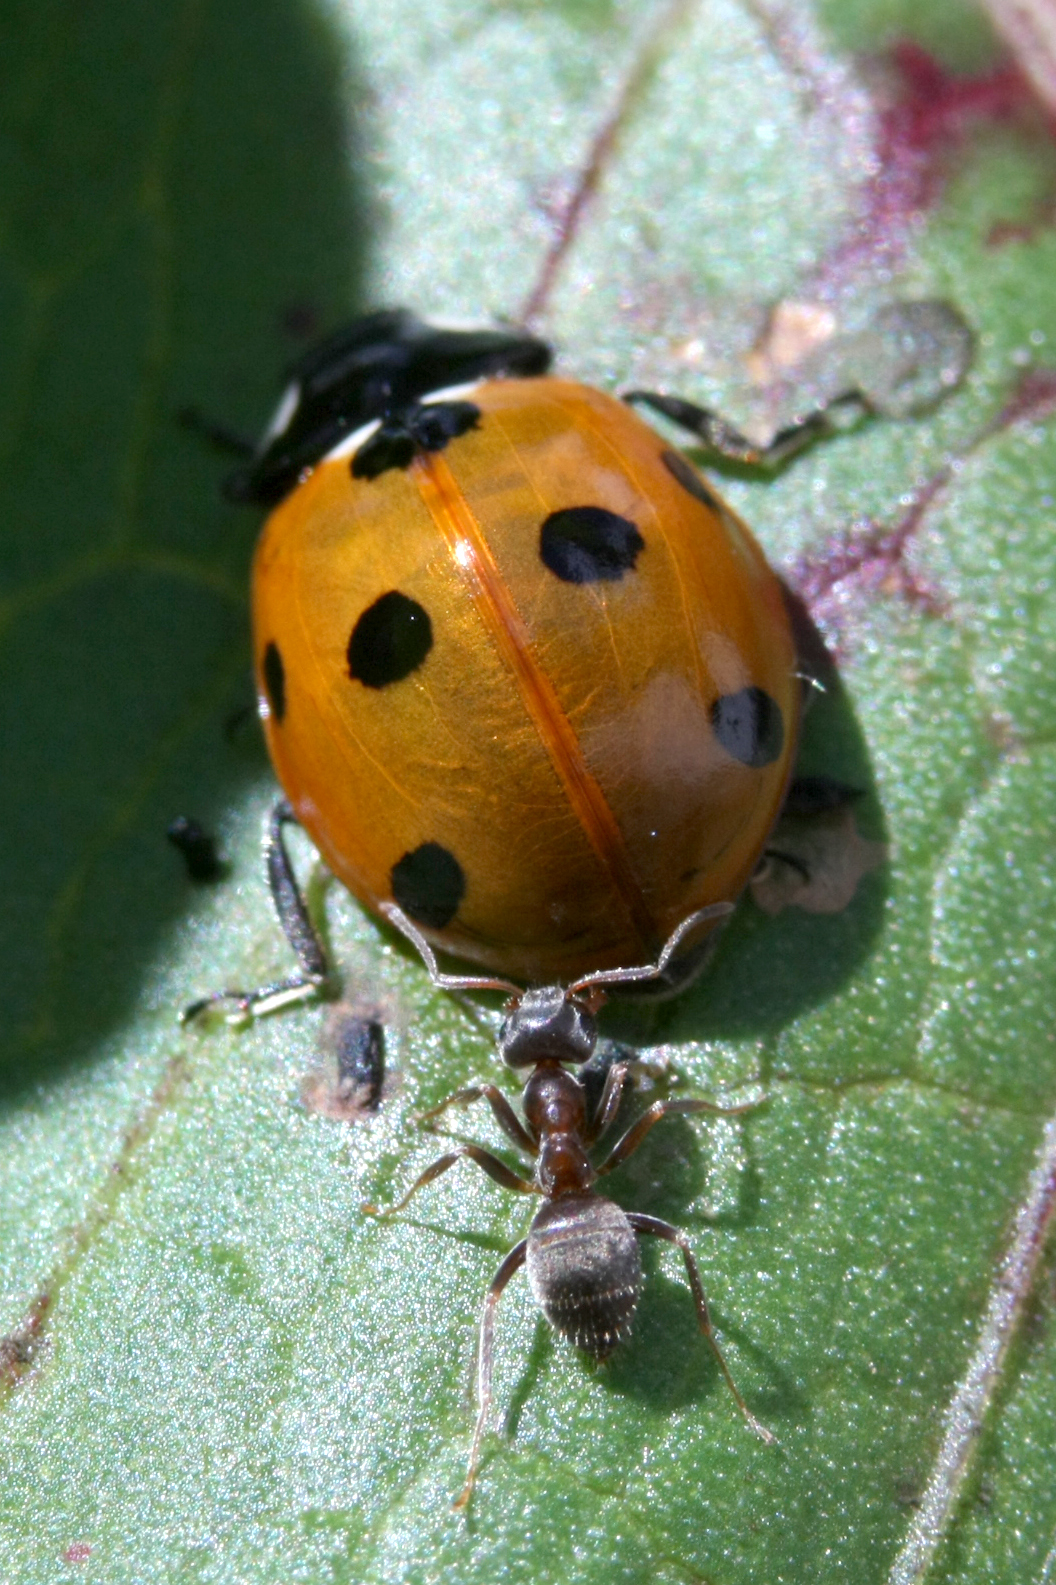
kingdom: Animalia
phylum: Arthropoda
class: Insecta
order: Coleoptera
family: Coccinellidae
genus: Coccinella
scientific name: Coccinella septempunctata
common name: Sevenspotted lady beetle
